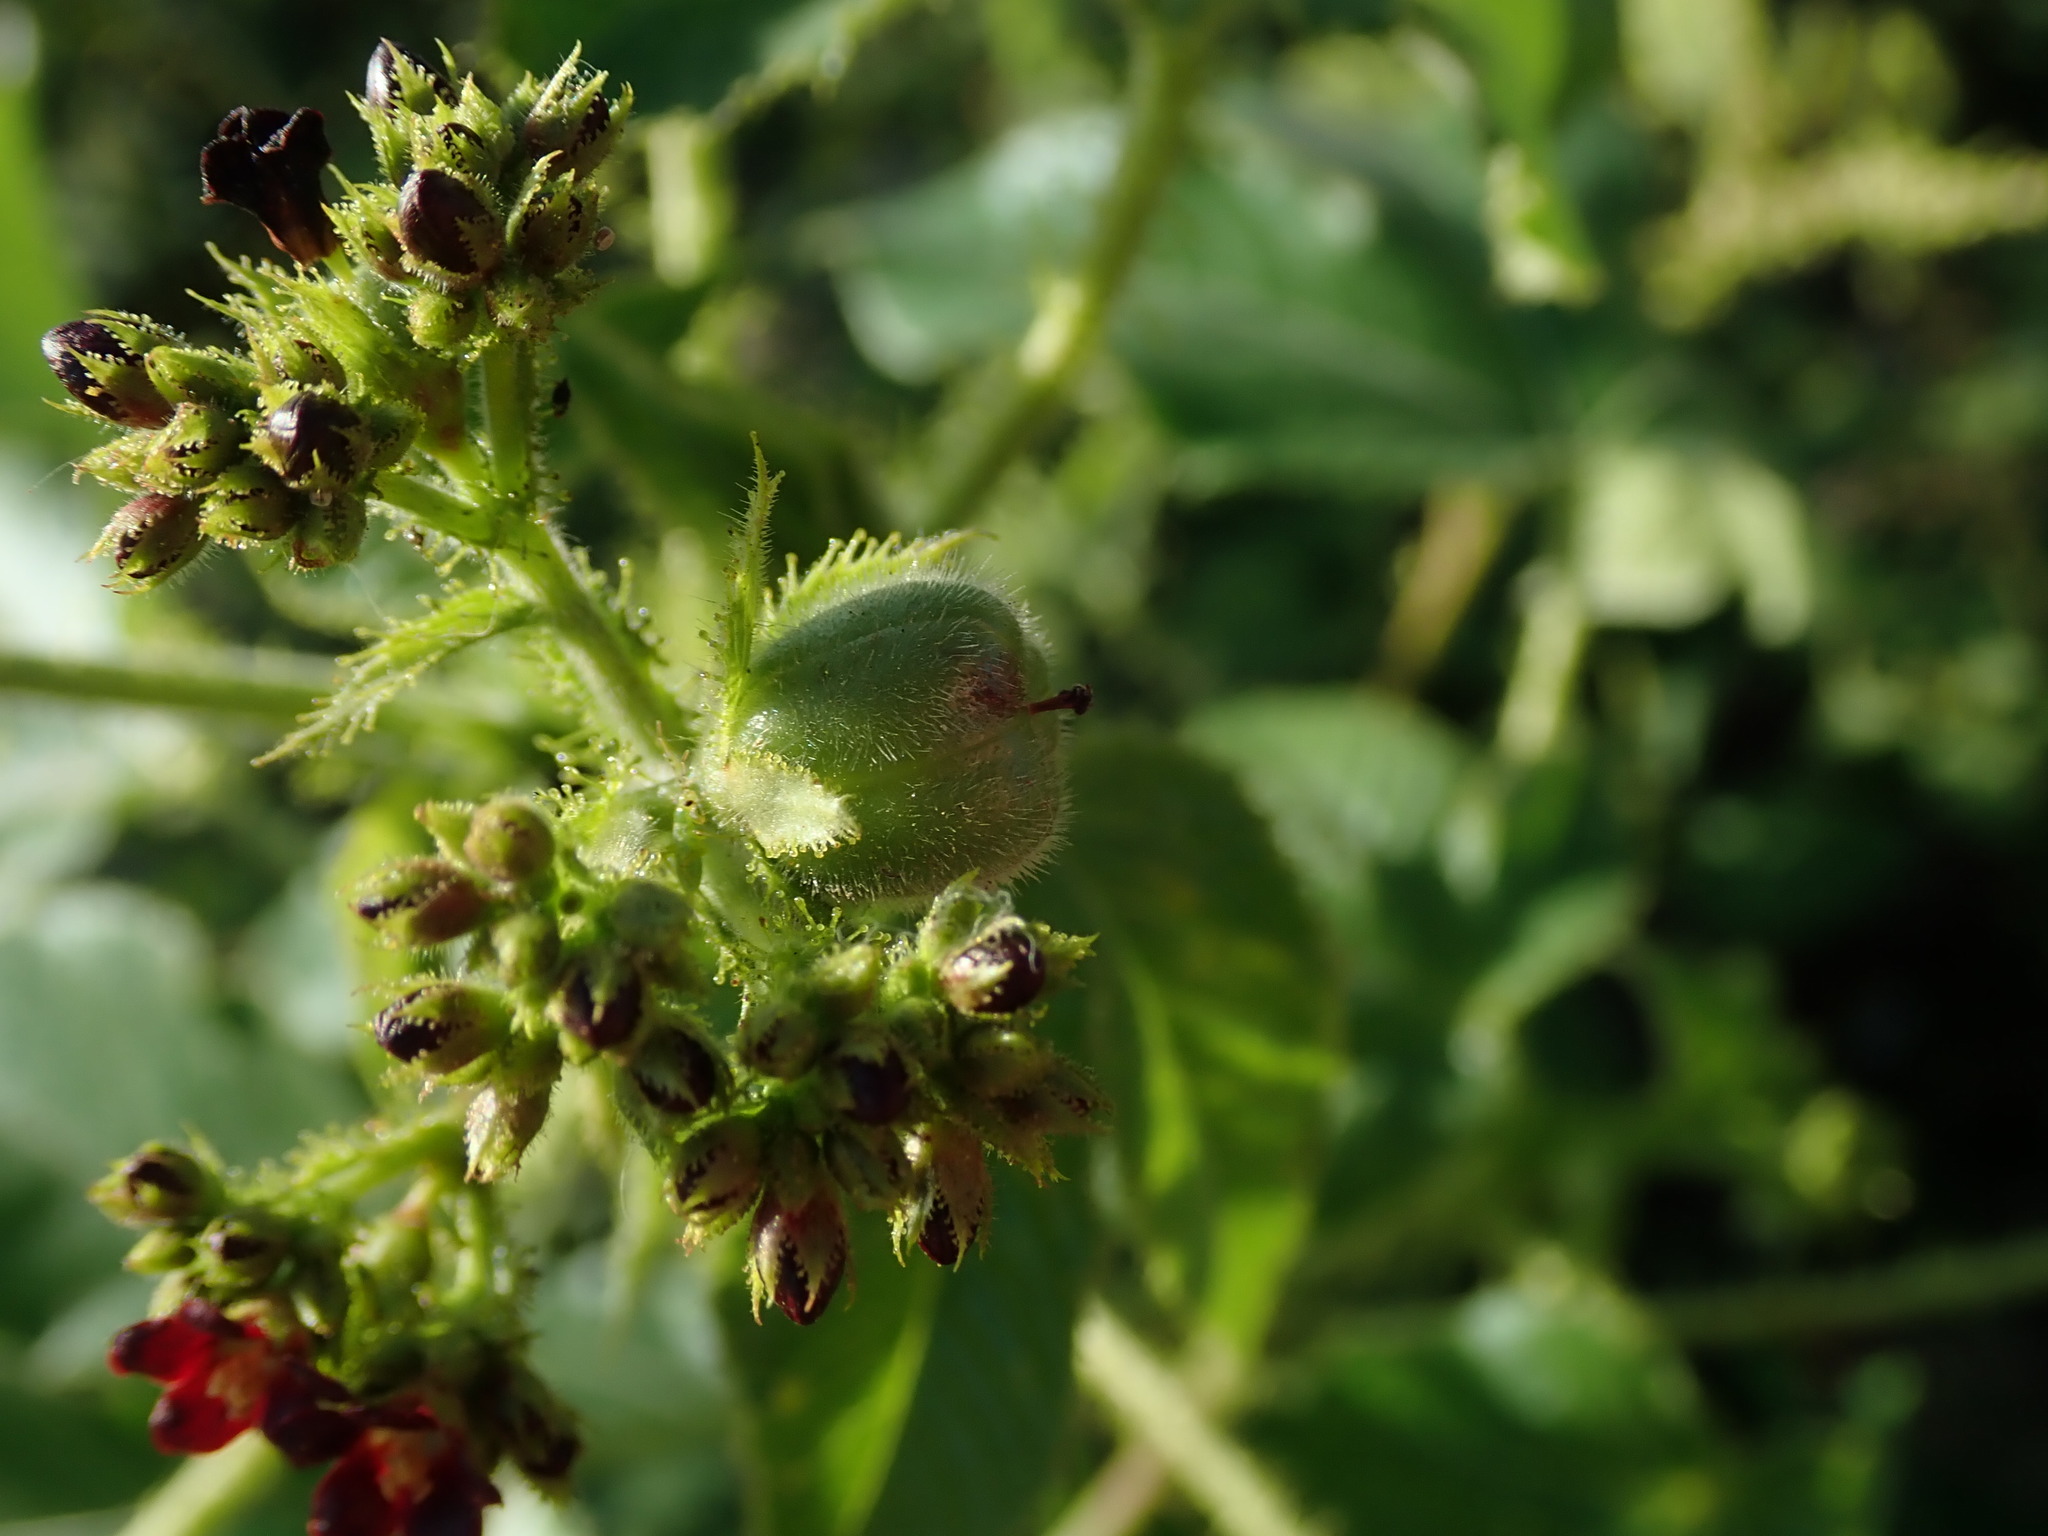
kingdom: Plantae
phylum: Tracheophyta
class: Magnoliopsida
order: Malpighiales
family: Euphorbiaceae
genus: Jatropha
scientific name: Jatropha gossypiifolia
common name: Bellyache bush
